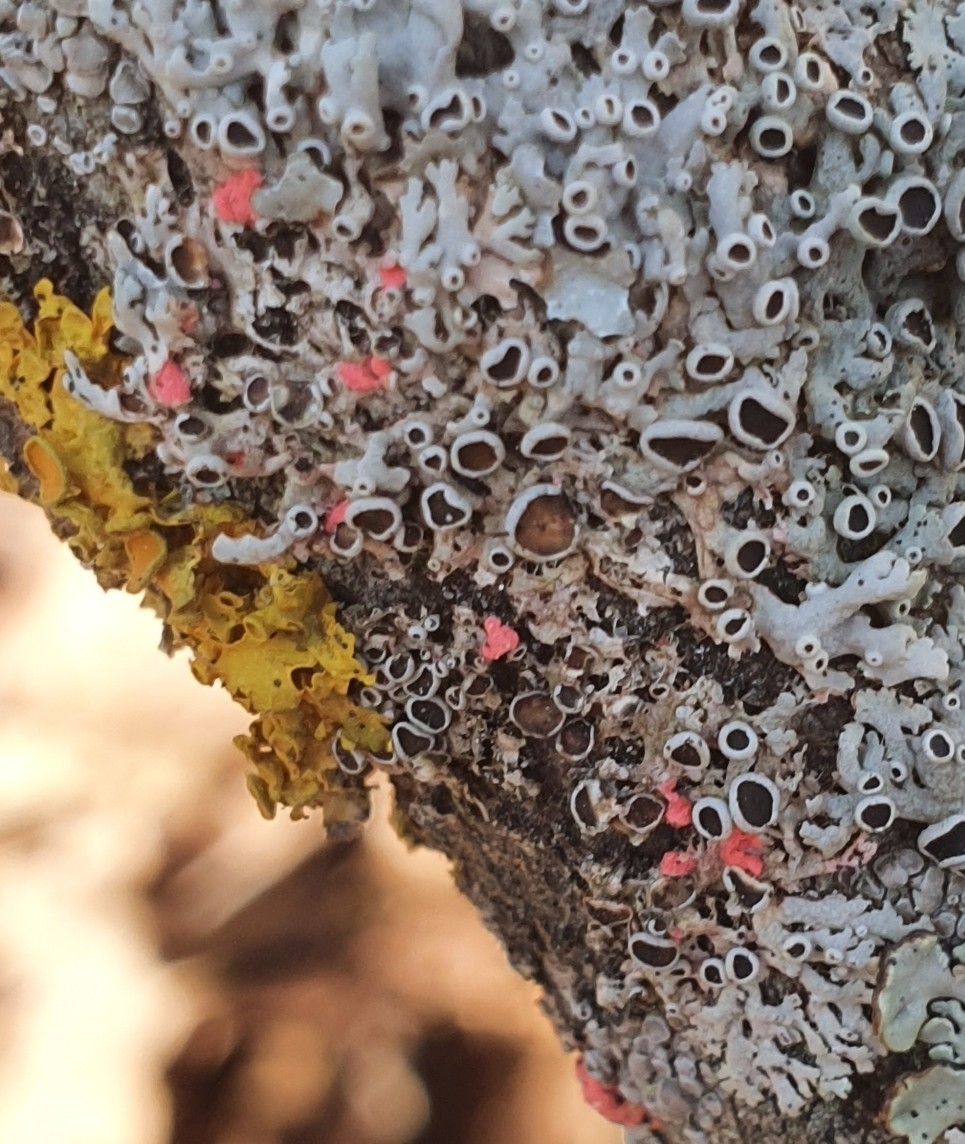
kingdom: Fungi
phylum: Ascomycota
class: Sordariomycetes
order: Hypocreales
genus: Illosporiopsis
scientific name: Illosporiopsis christiansenii
